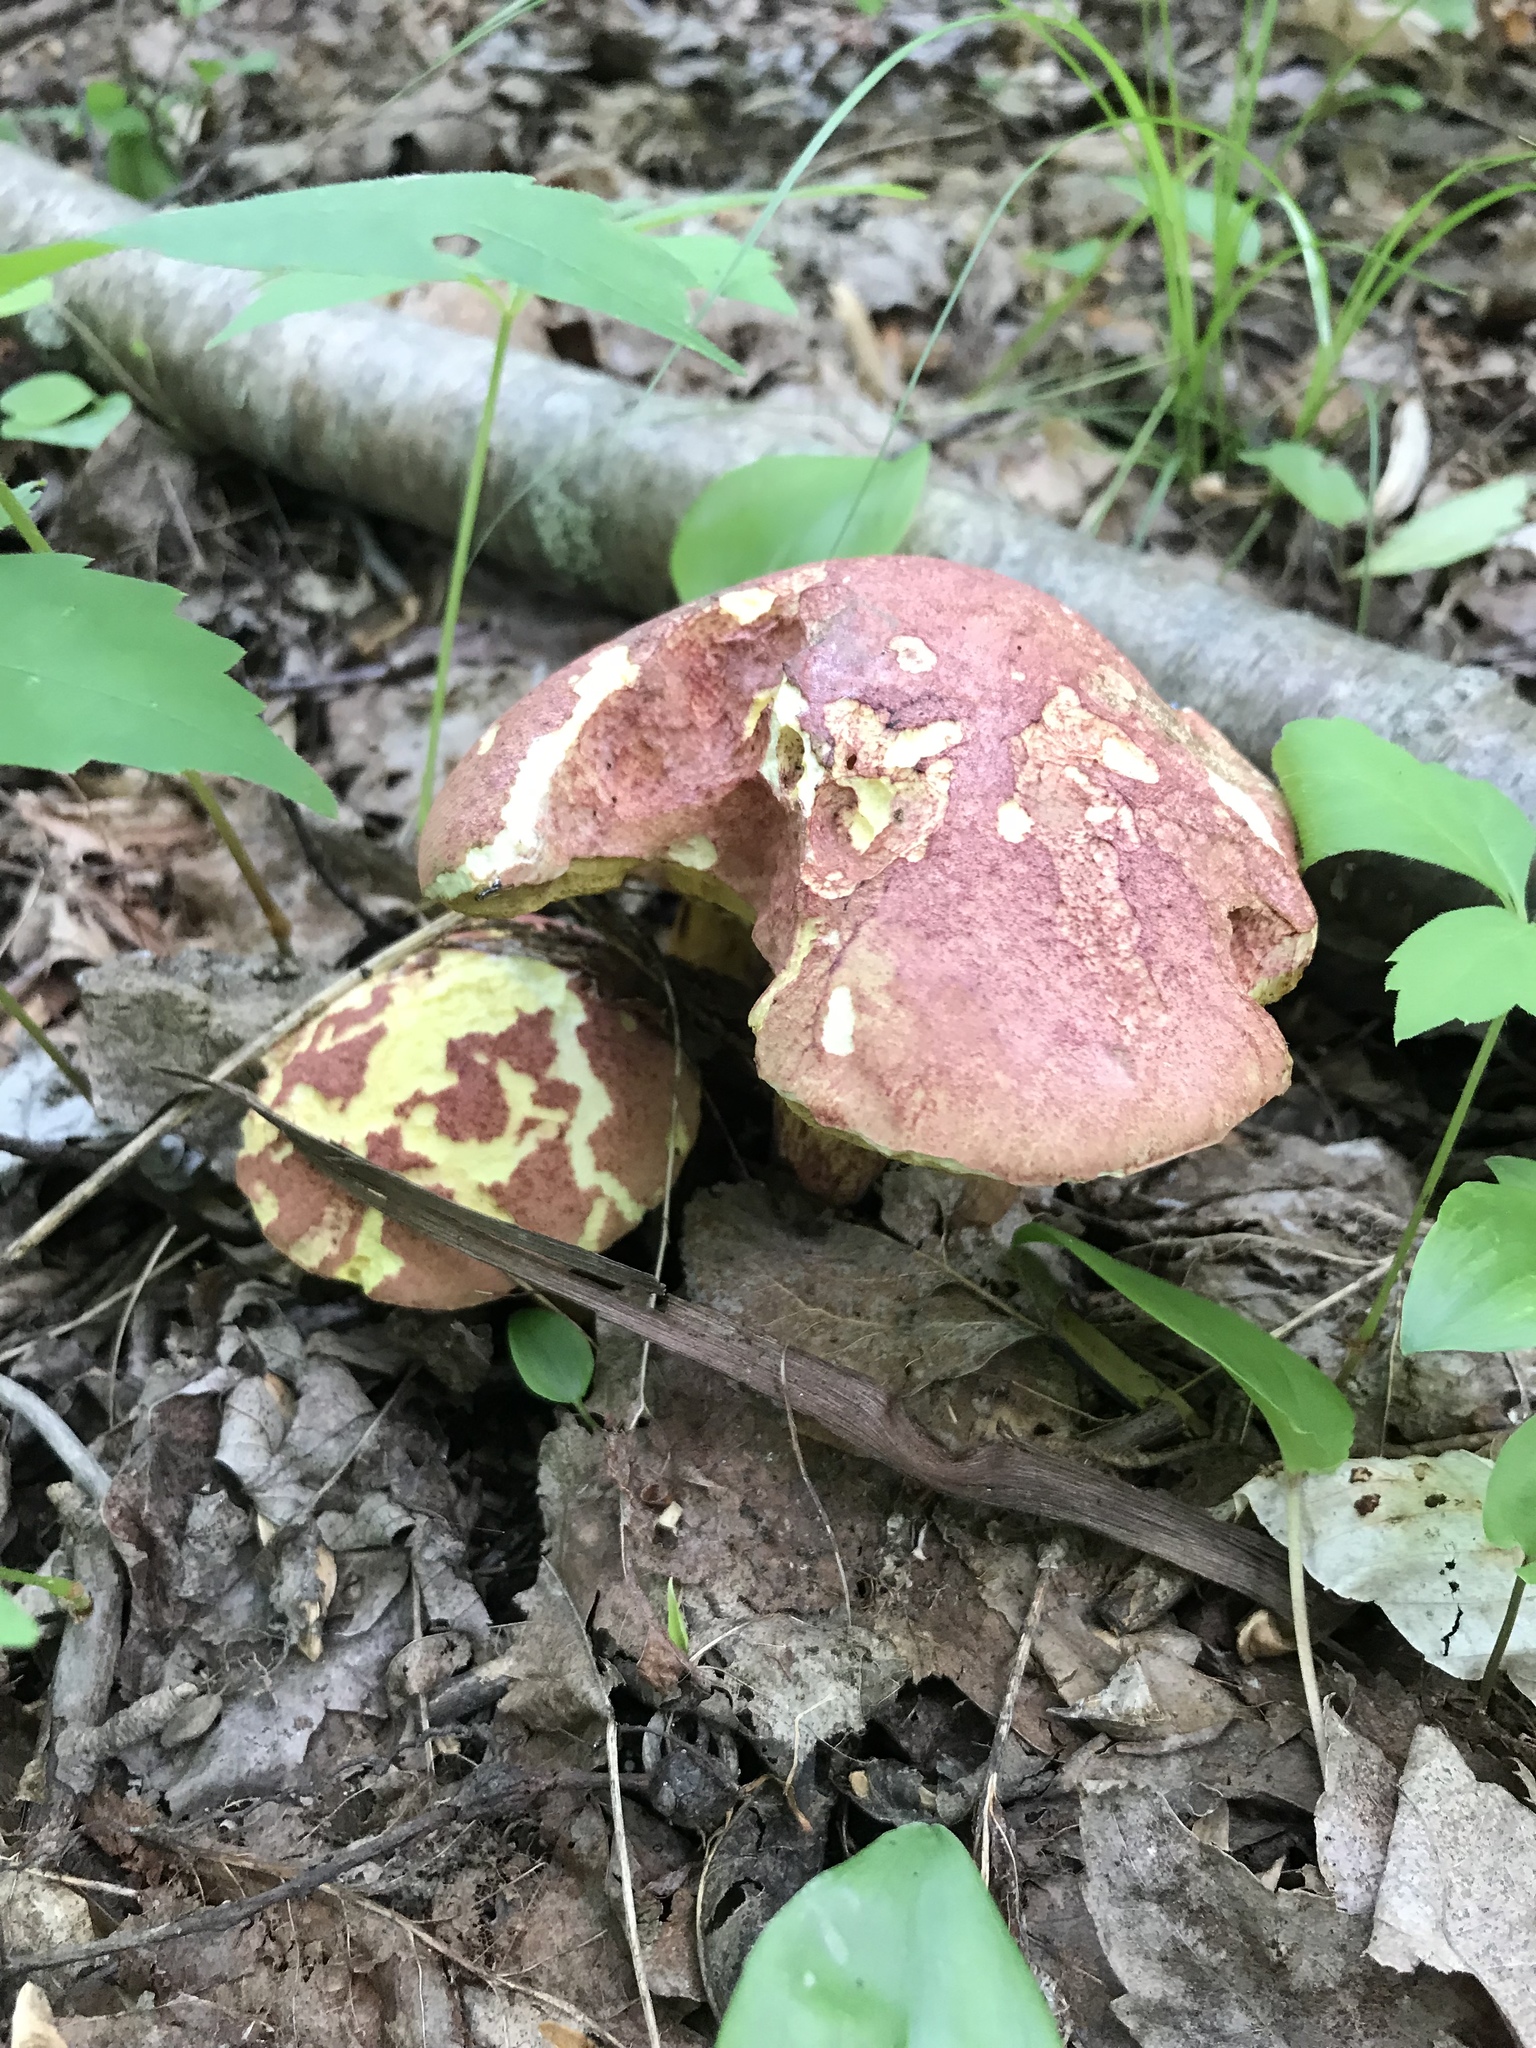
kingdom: Fungi
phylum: Basidiomycota
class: Agaricomycetes
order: Boletales
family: Boletaceae
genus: Baorangia
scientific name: Baorangia bicolor
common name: Two-colored bolete
